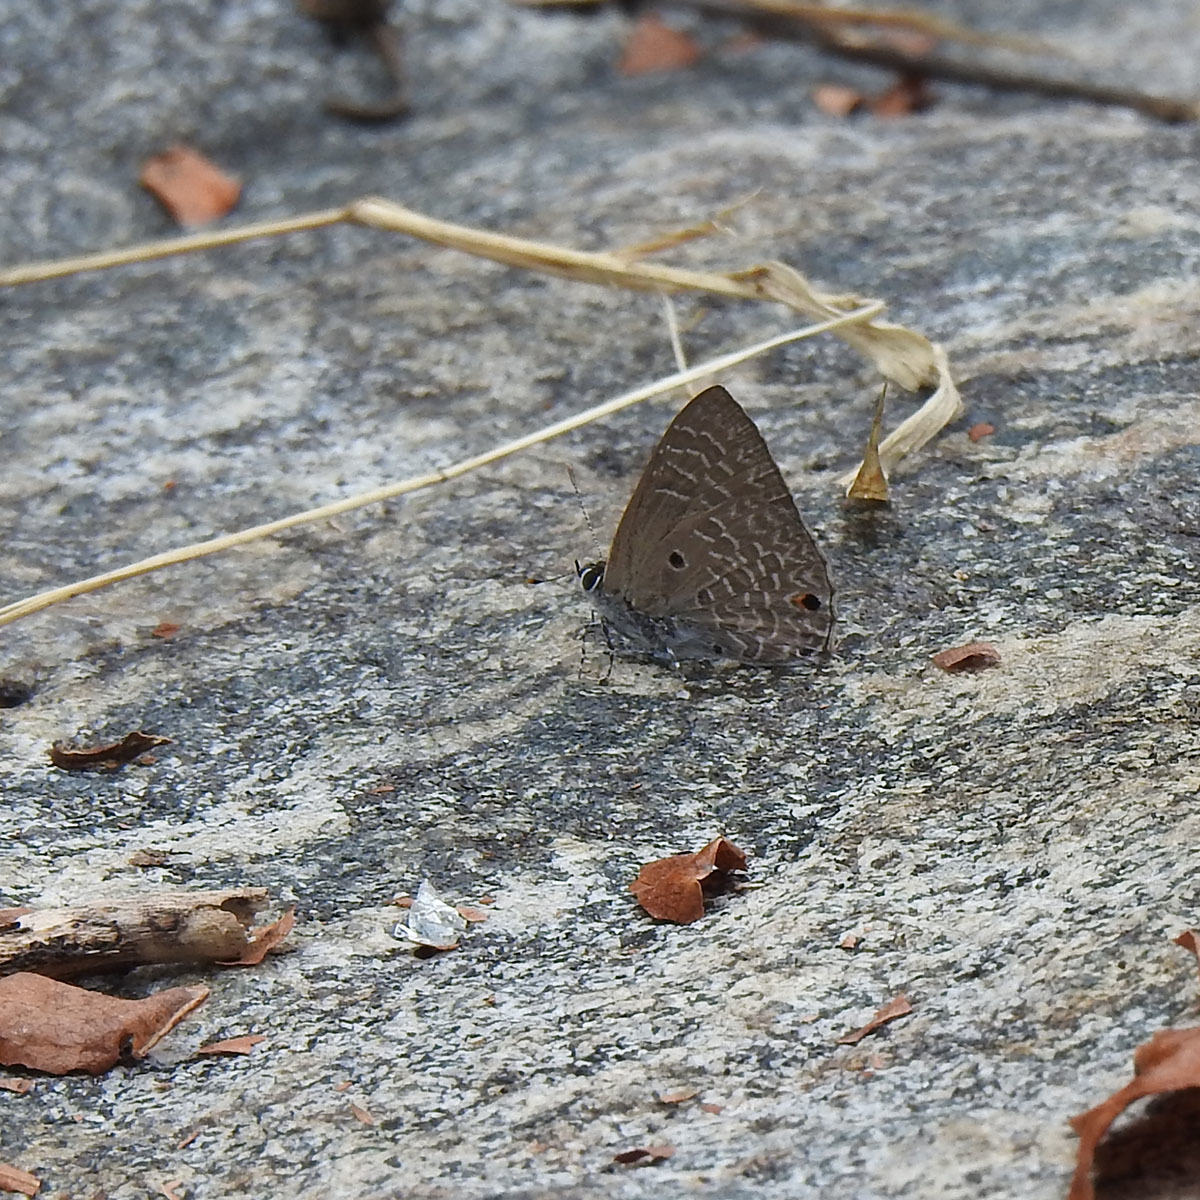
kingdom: Animalia
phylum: Arthropoda
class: Insecta
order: Lepidoptera
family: Lycaenidae
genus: Anthene
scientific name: Anthene lycaenina
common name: Pointed ciliate blue
